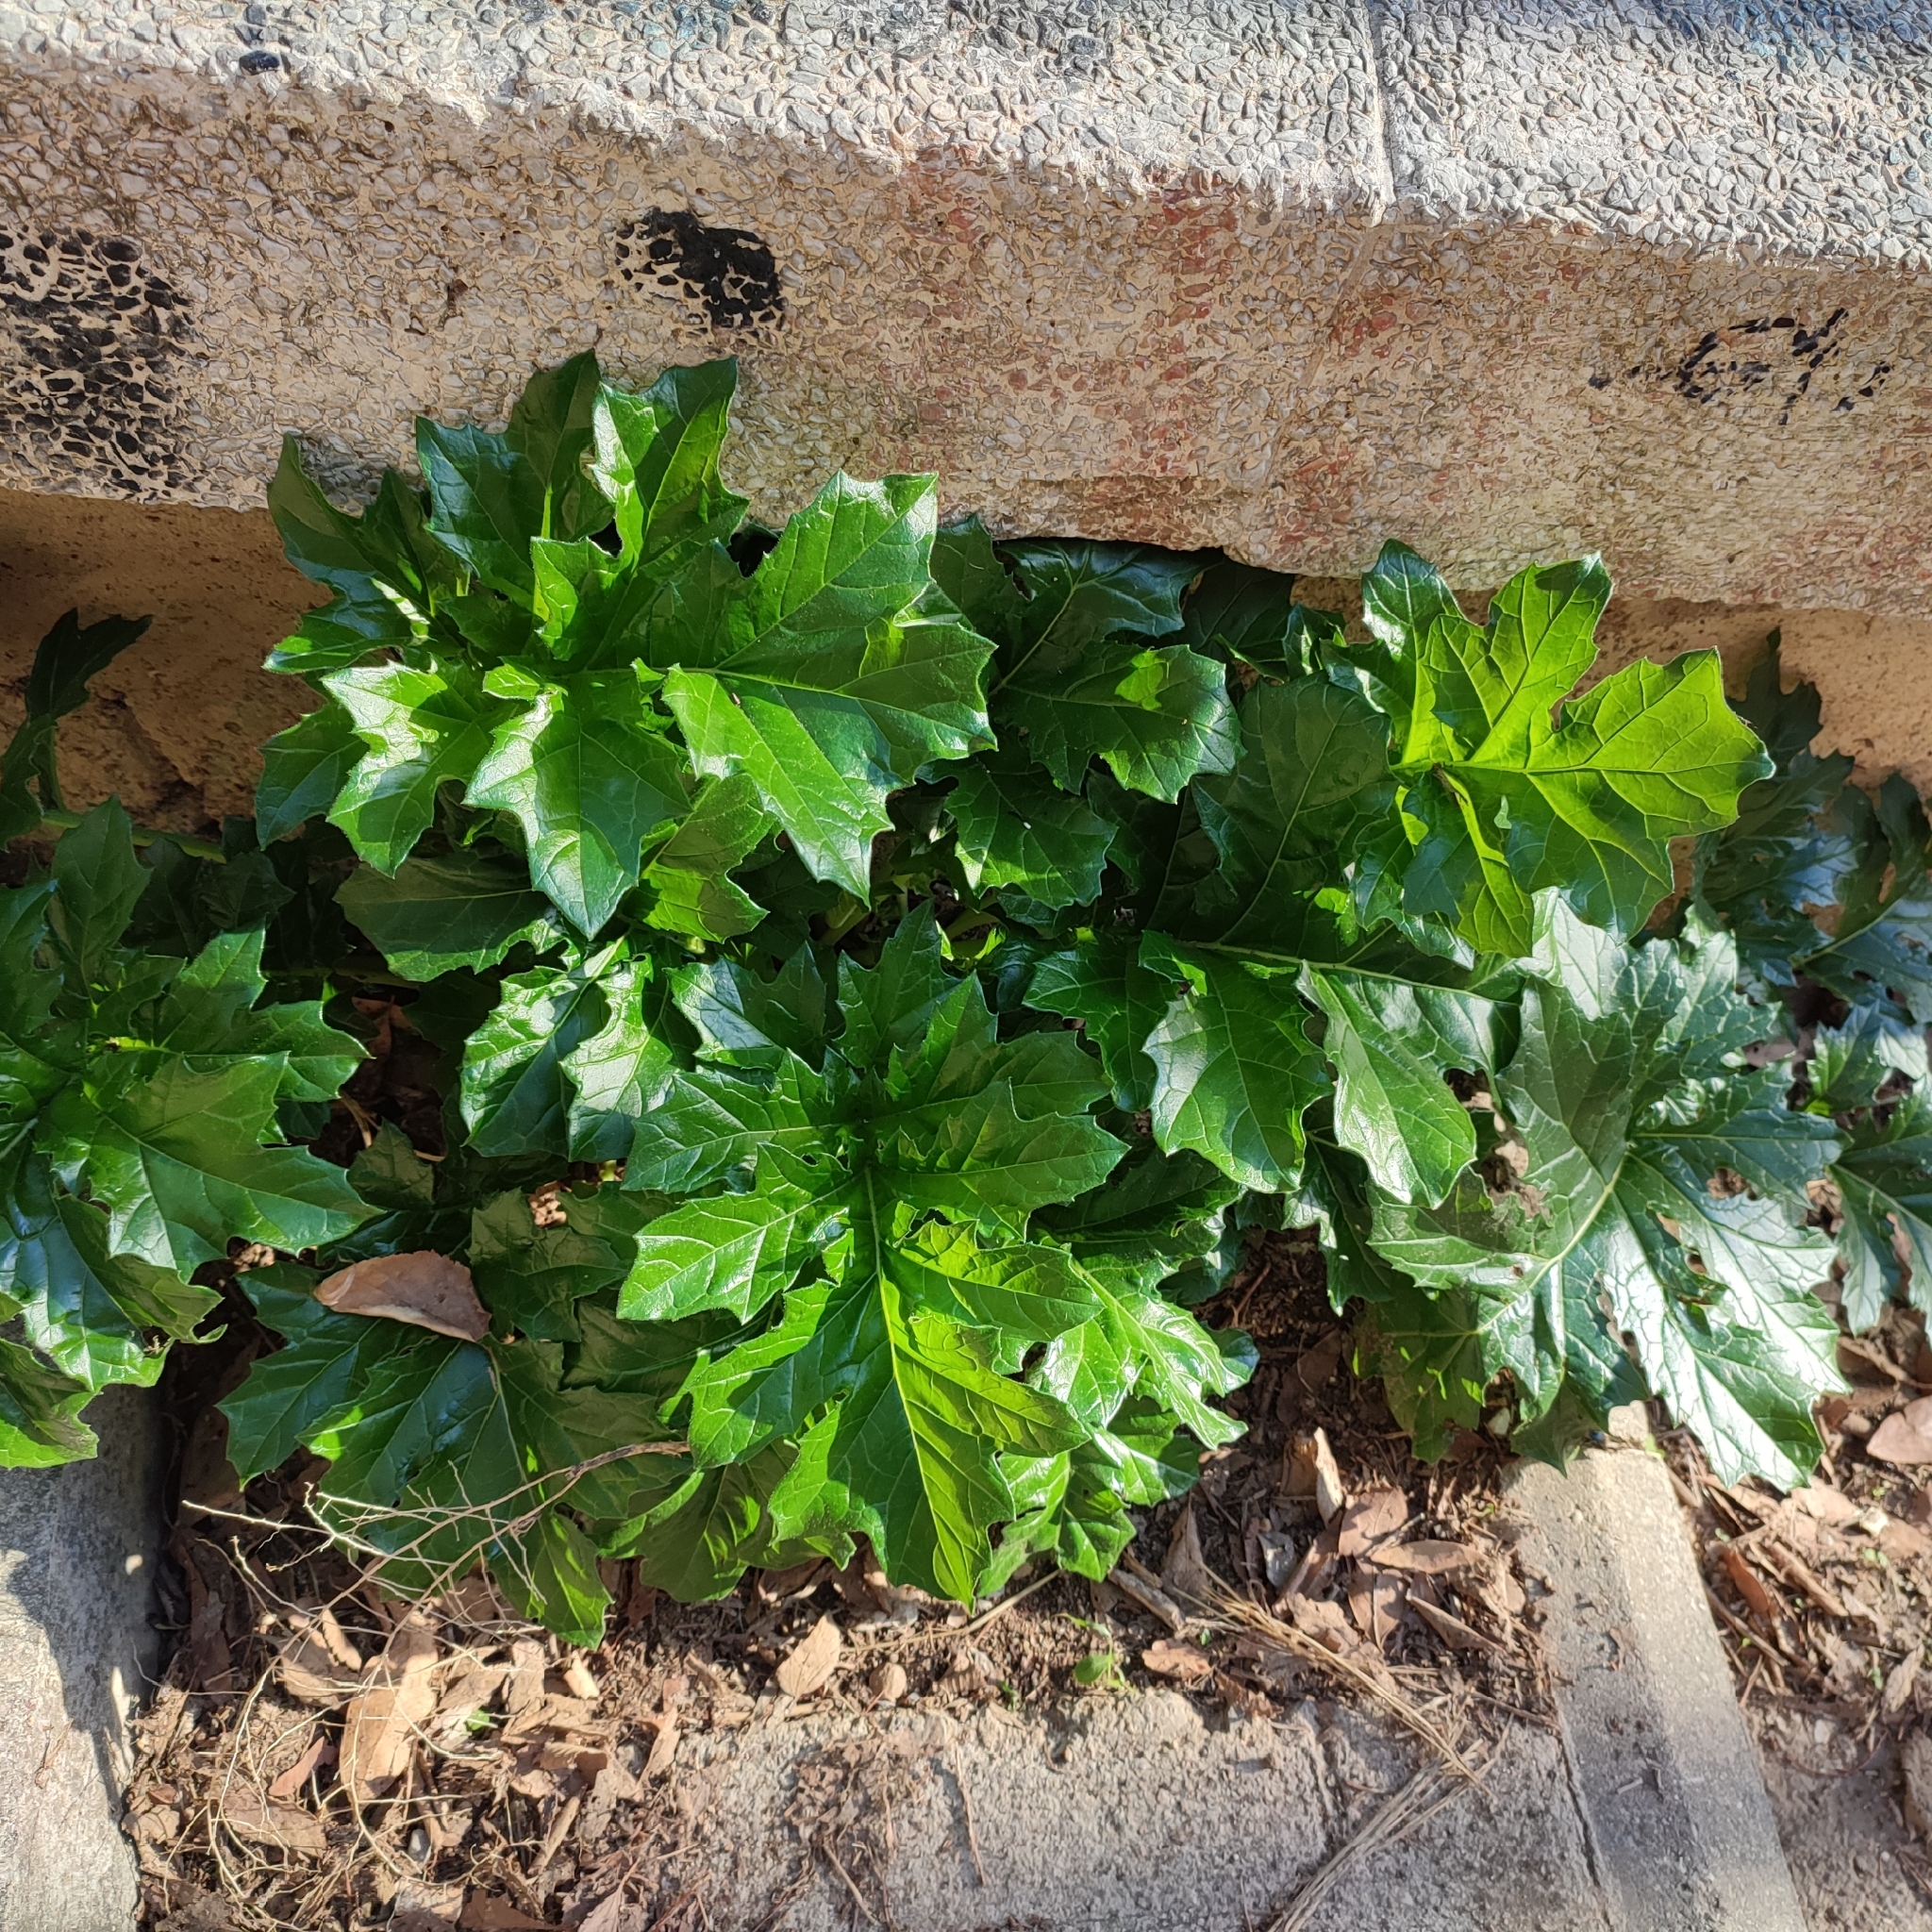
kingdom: Plantae
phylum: Tracheophyta
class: Magnoliopsida
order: Lamiales
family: Acanthaceae
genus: Acanthus
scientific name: Acanthus mollis
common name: Bear's-breech
